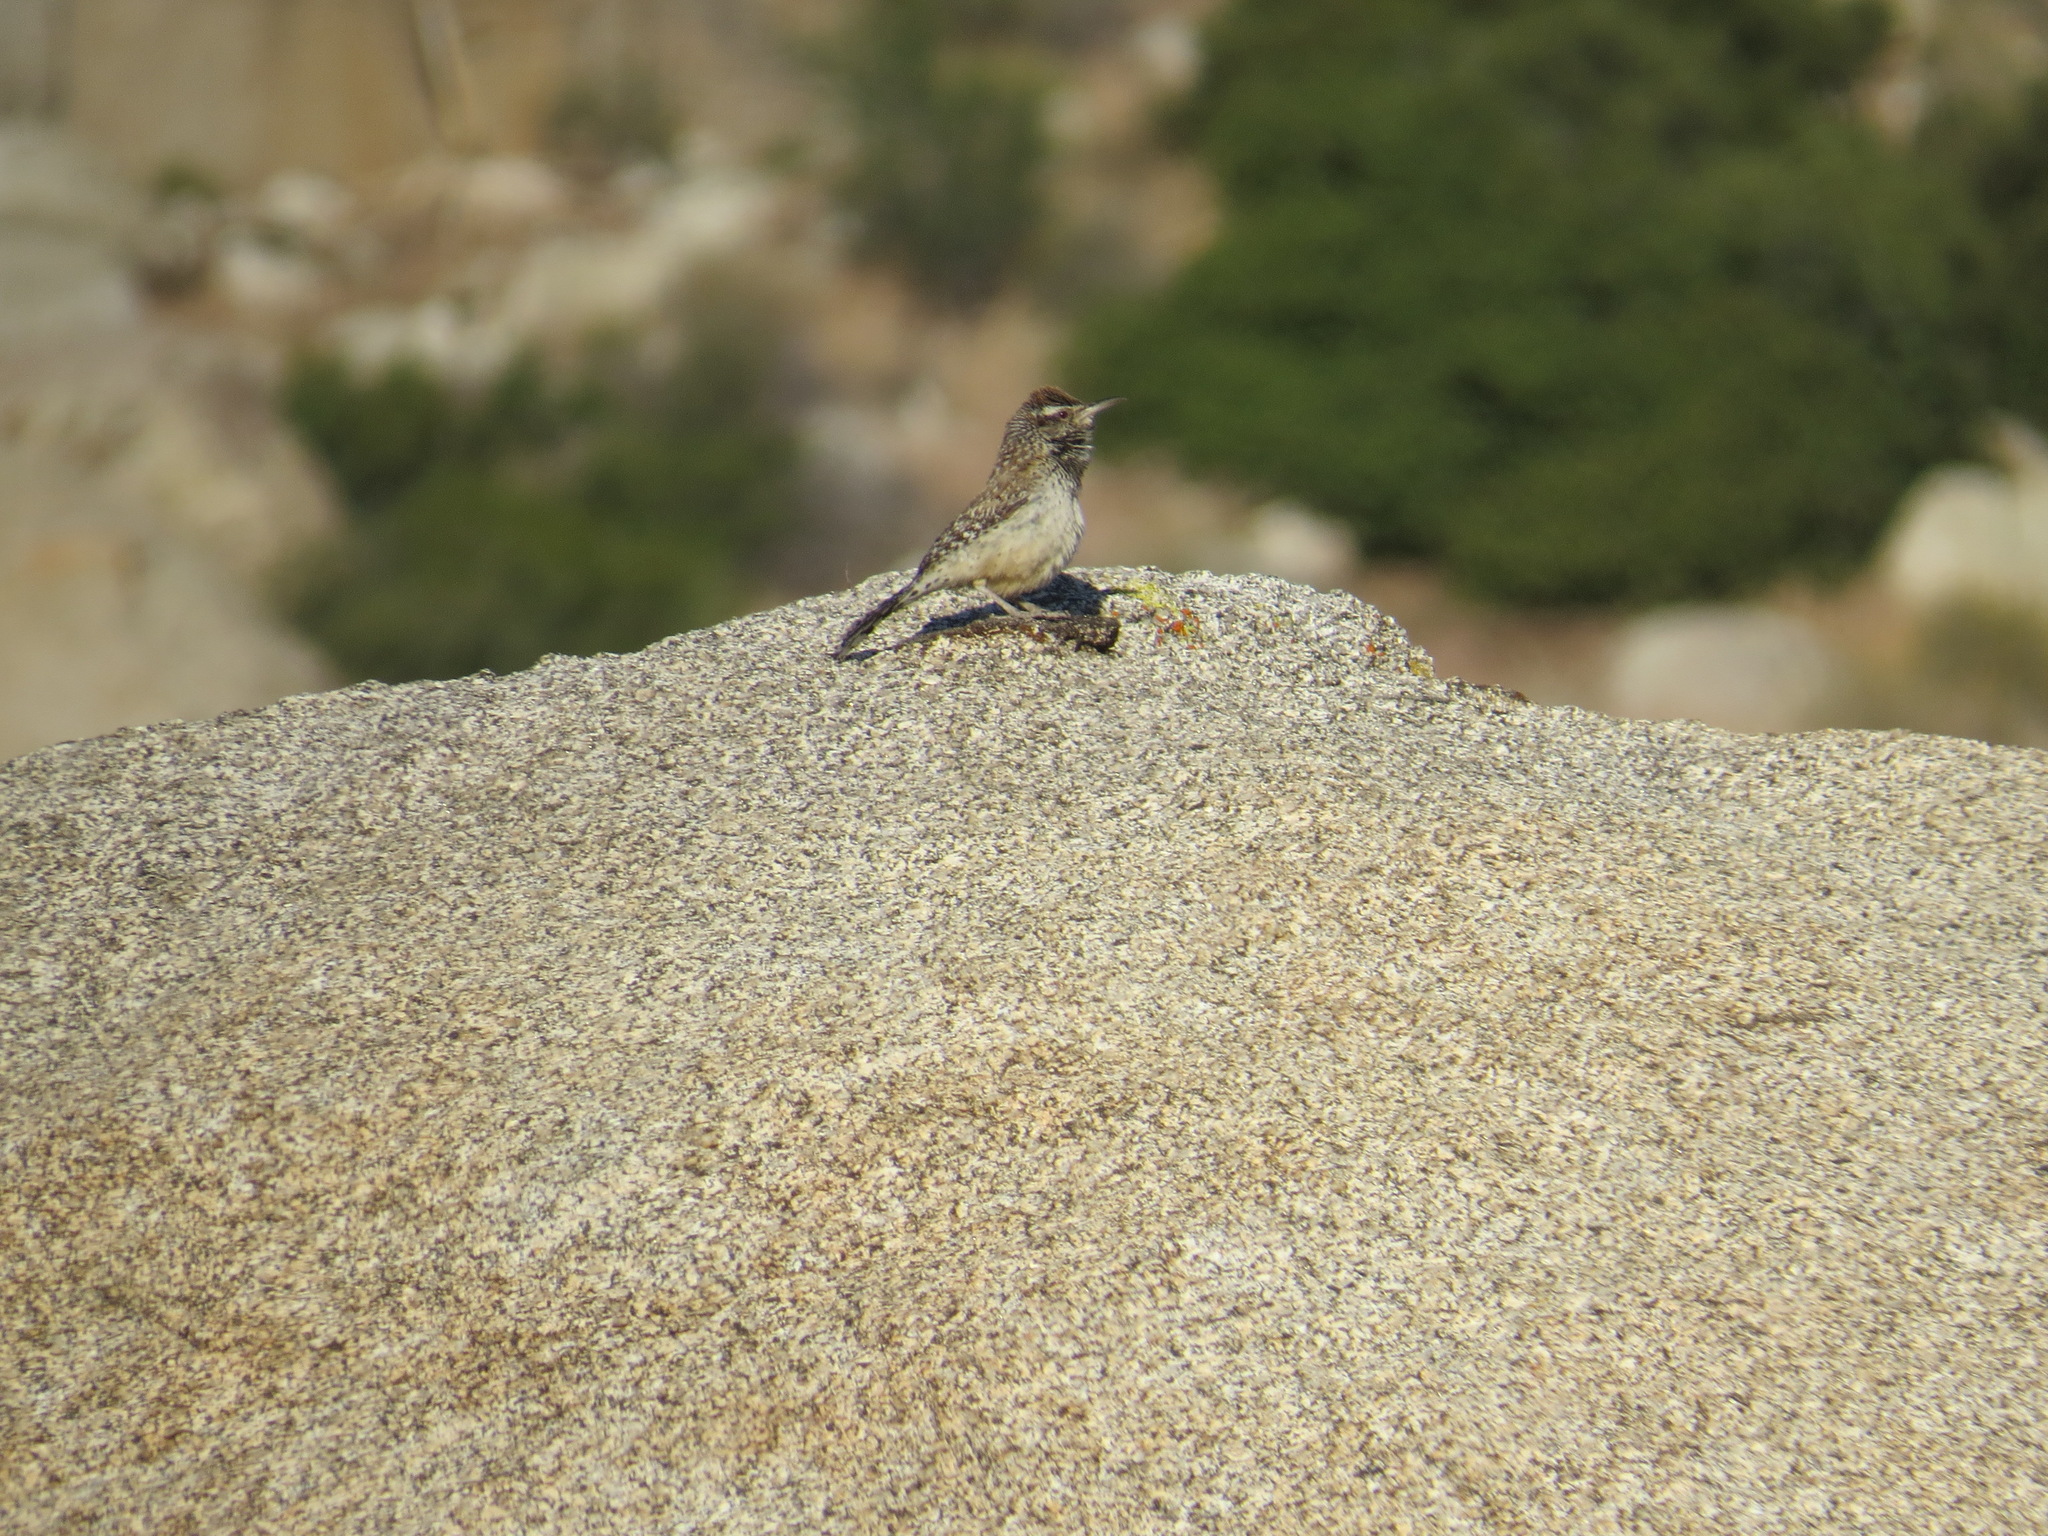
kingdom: Animalia
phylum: Chordata
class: Aves
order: Passeriformes
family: Troglodytidae
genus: Campylorhynchus
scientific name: Campylorhynchus brunneicapillus
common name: Cactus wren
